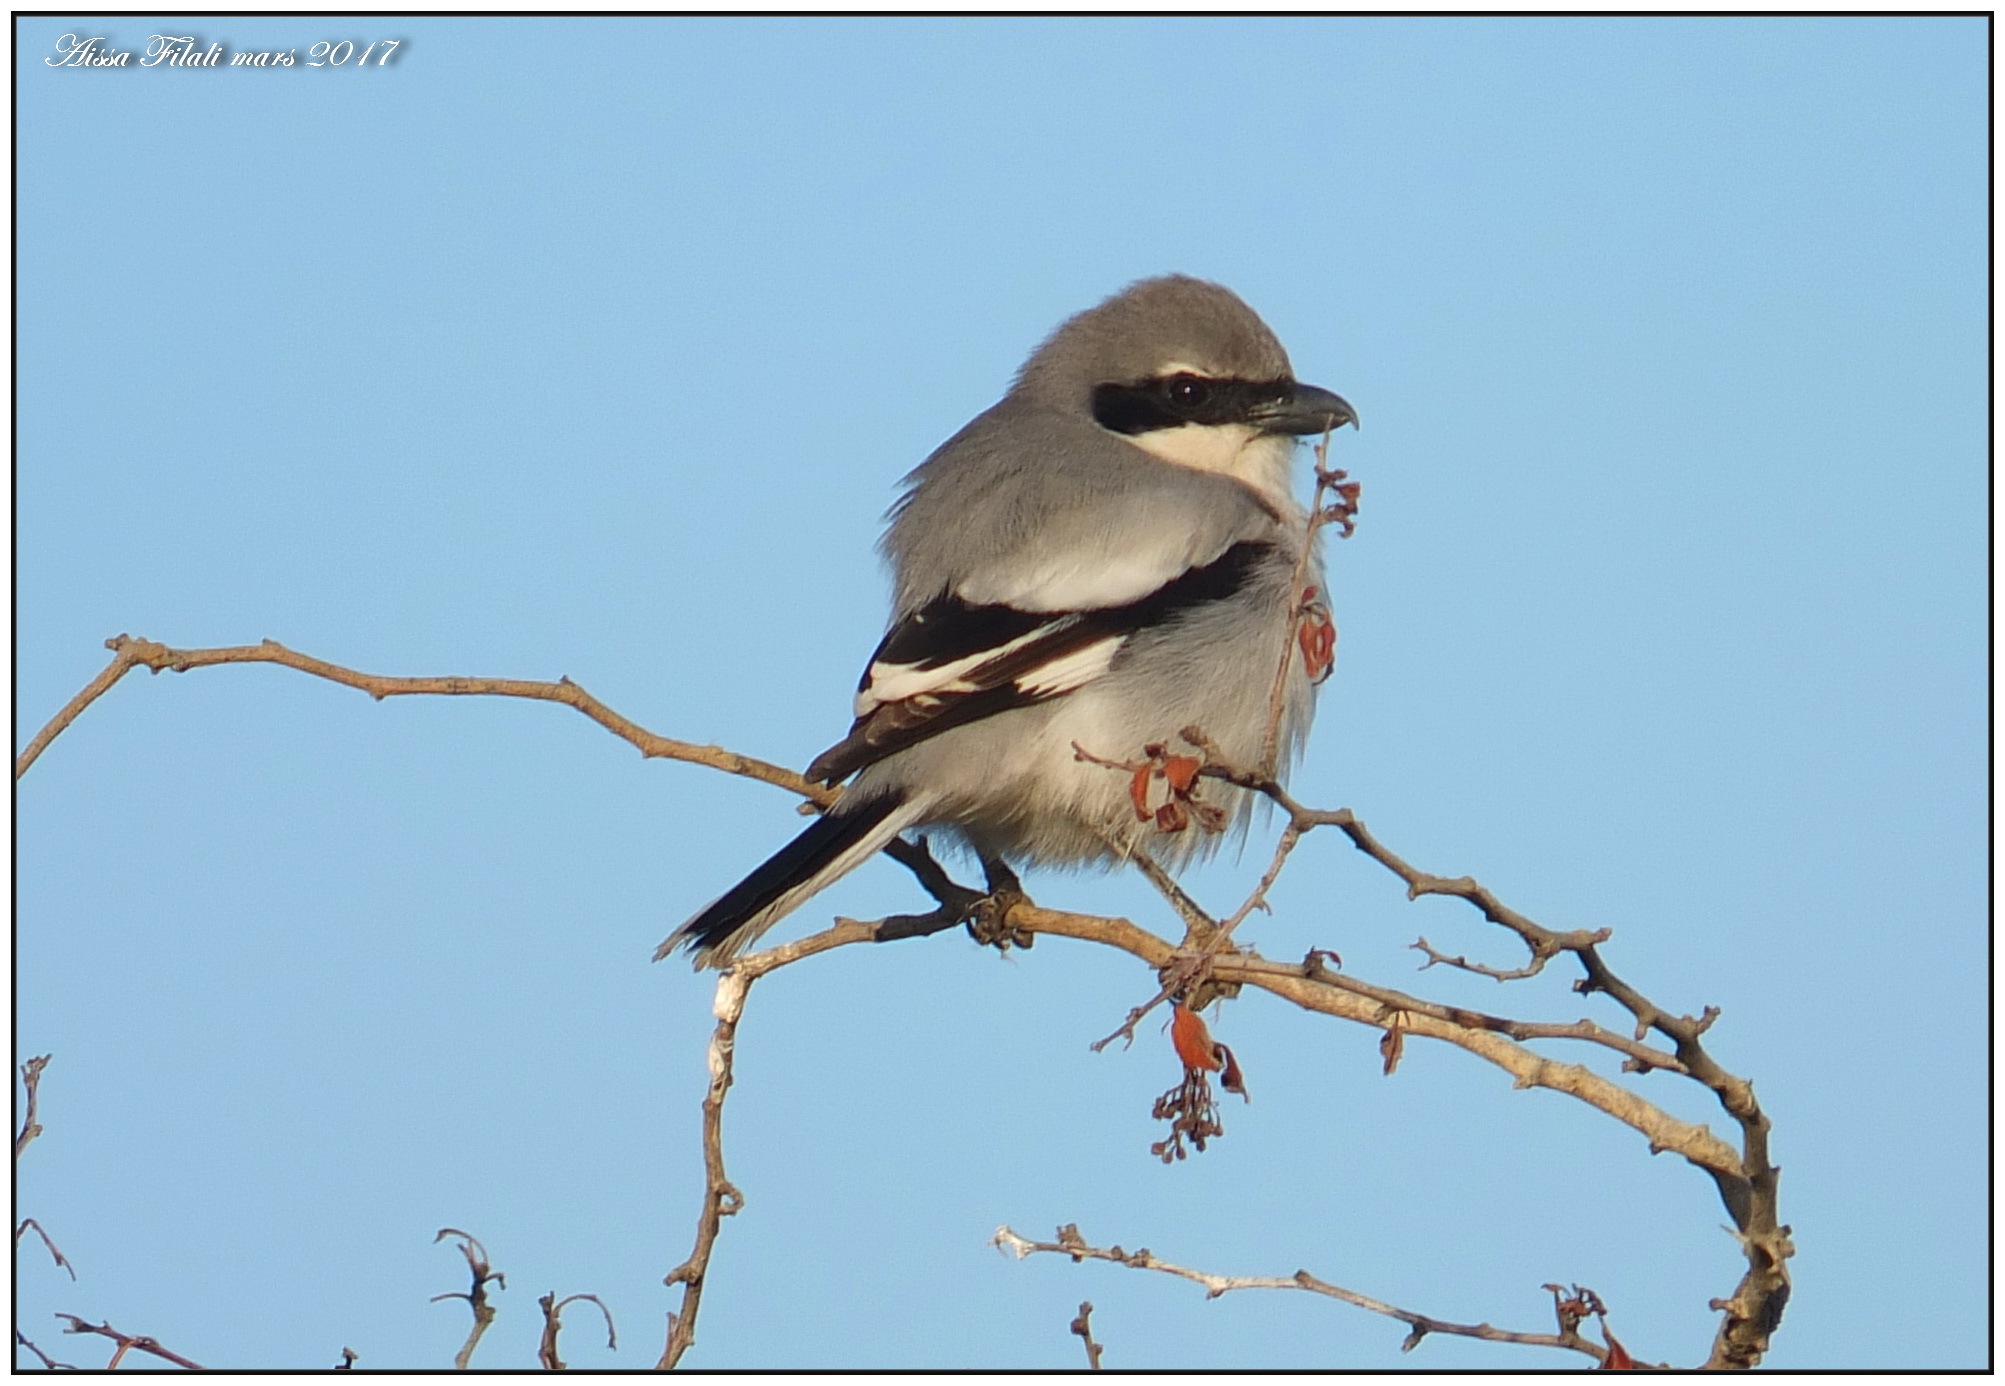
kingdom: Animalia
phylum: Chordata
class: Aves
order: Passeriformes
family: Laniidae
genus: Lanius
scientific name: Lanius excubitor
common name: Great grey shrike
